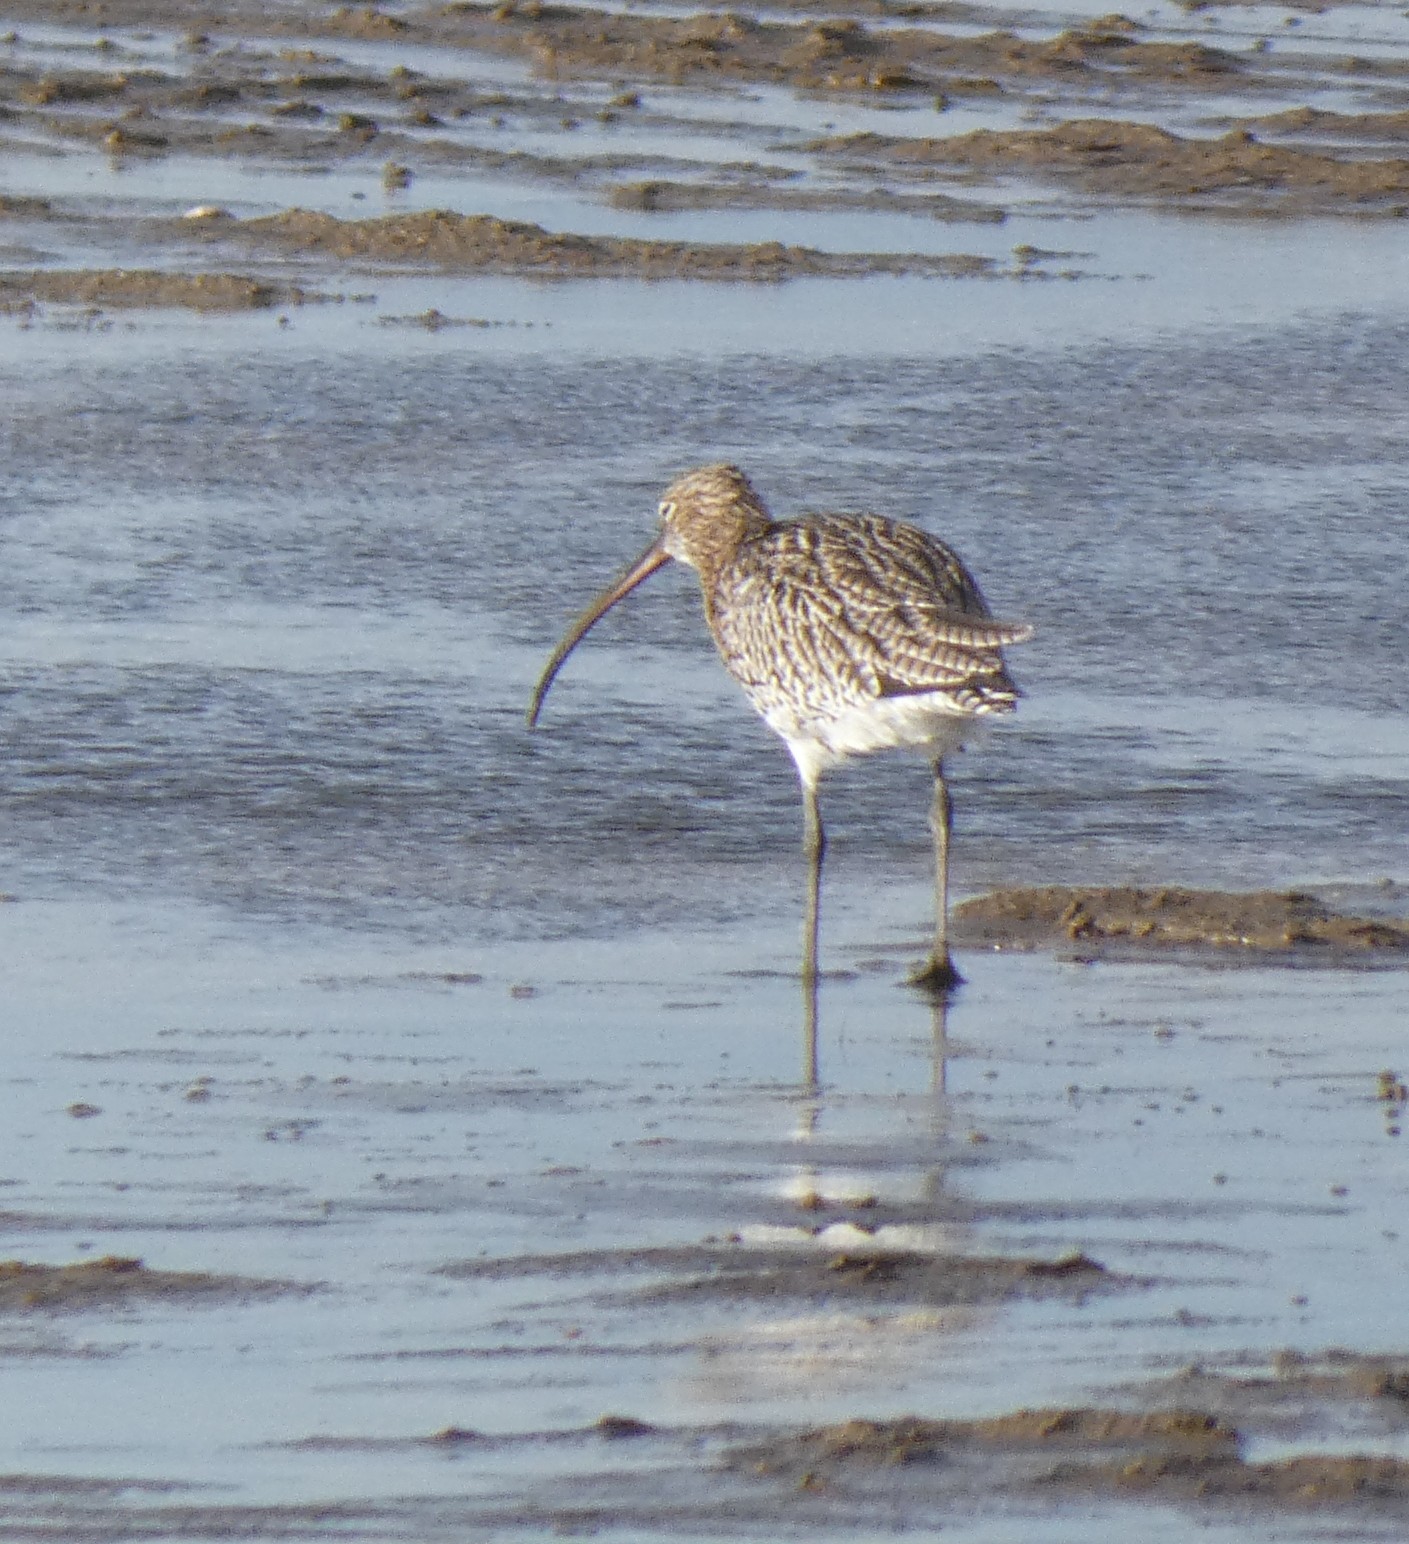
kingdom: Animalia
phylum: Chordata
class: Aves
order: Charadriiformes
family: Scolopacidae
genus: Numenius
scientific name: Numenius arquata
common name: Eurasian curlew
